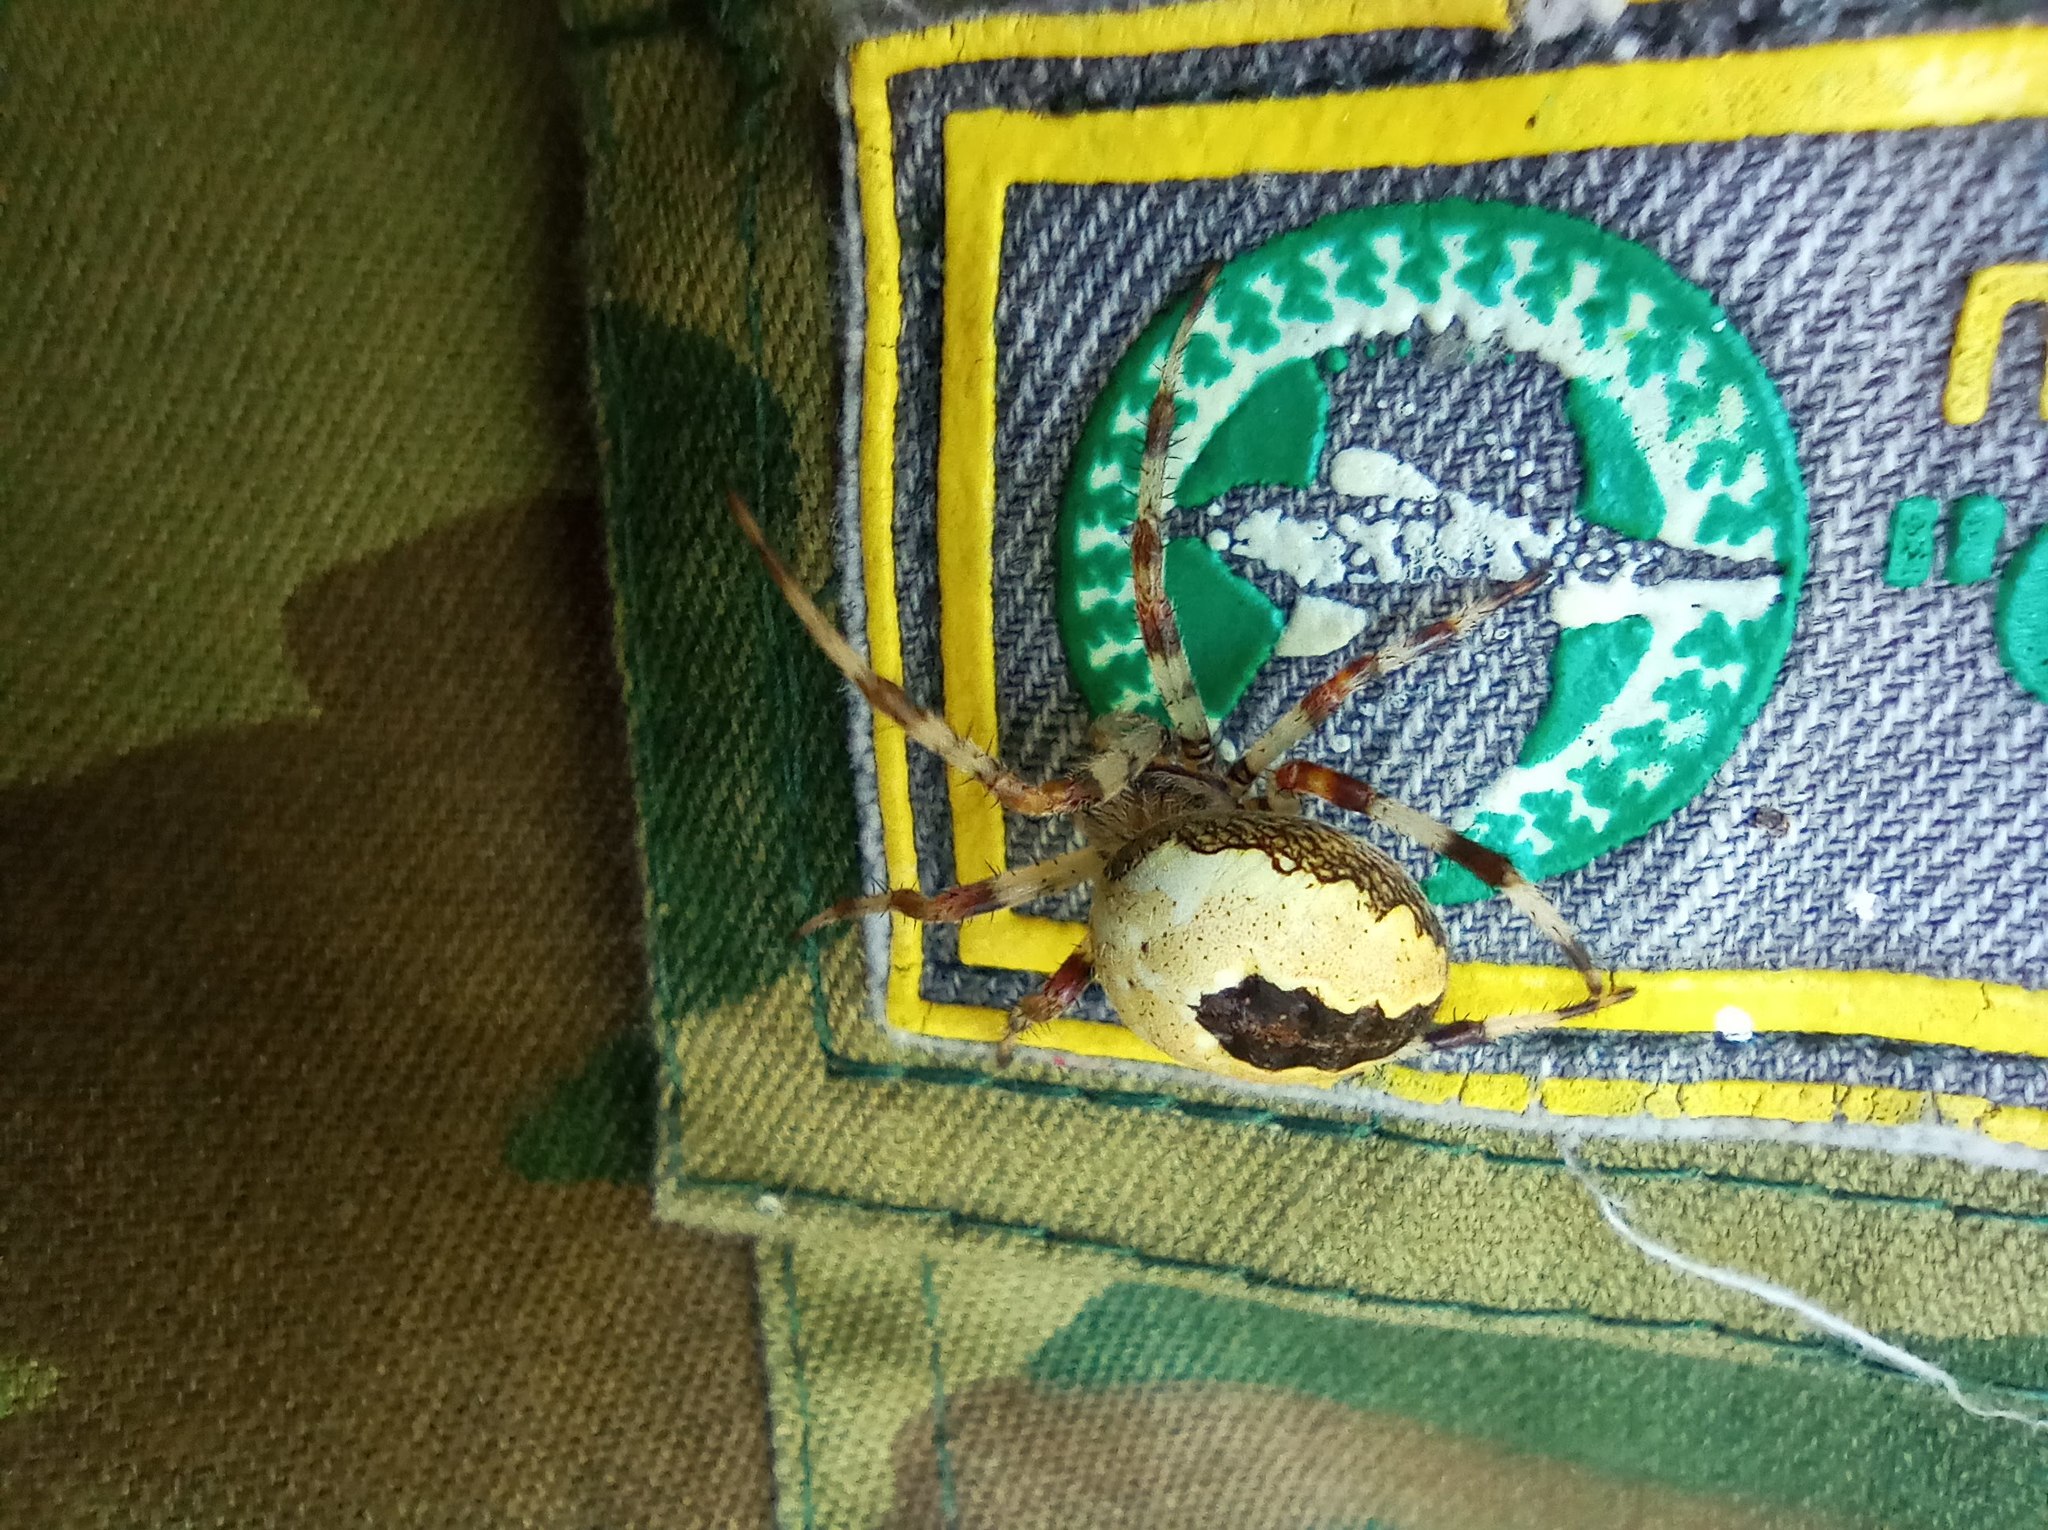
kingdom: Animalia
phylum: Arthropoda
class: Arachnida
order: Araneae
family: Araneidae
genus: Araneus
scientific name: Araneus marmoreus
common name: Marbled orbweaver
